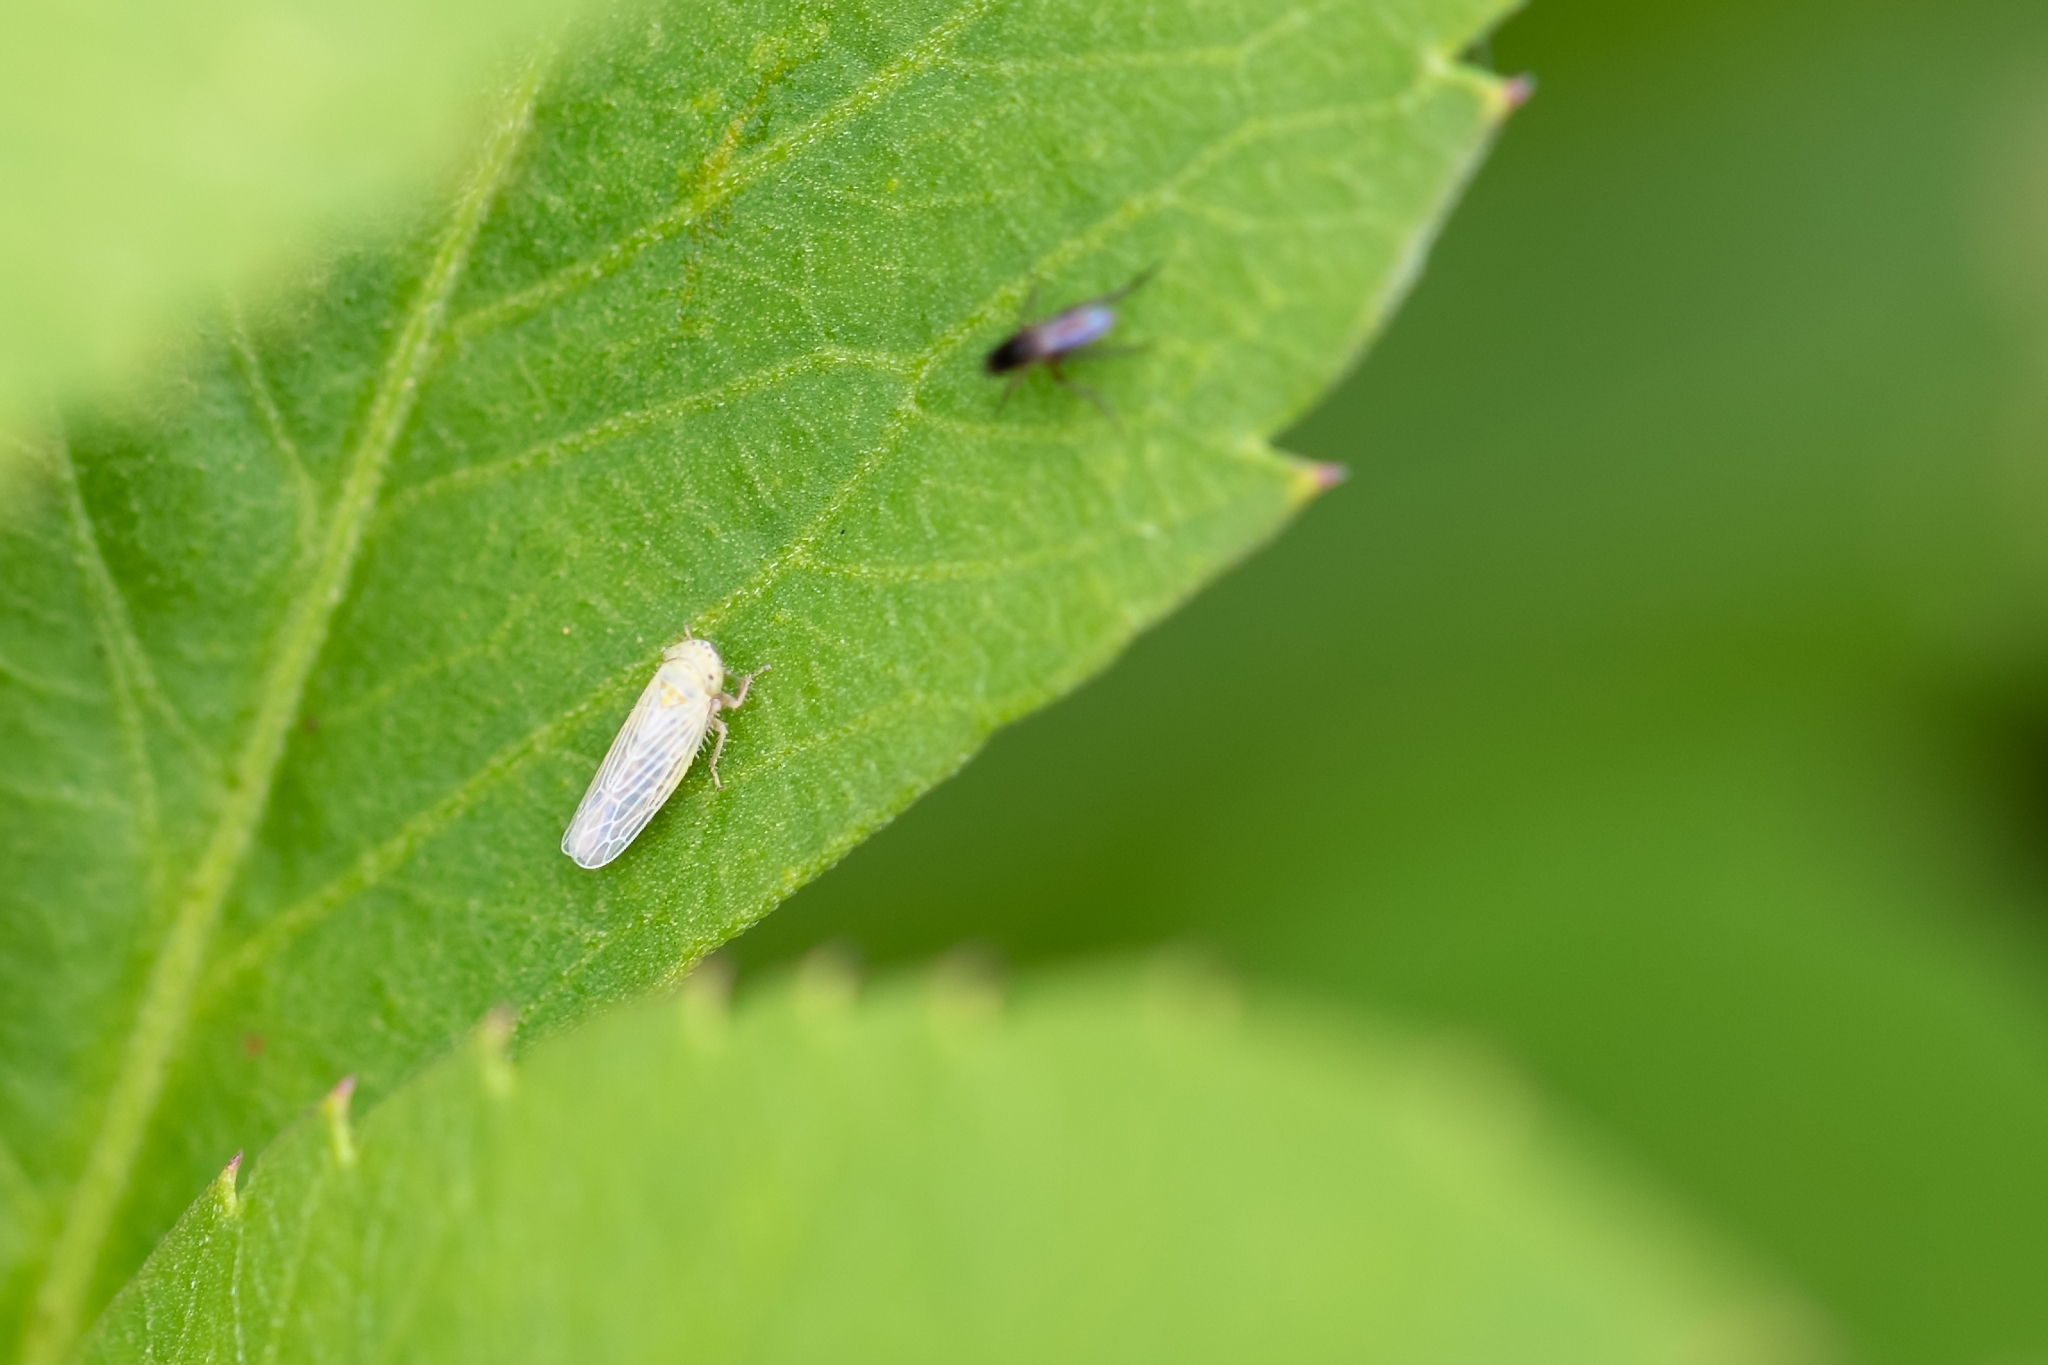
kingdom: Animalia
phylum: Arthropoda
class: Insecta
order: Hemiptera
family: Cicadellidae
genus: Graminella
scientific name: Graminella nigrifrons
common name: Blackfaced leafhopper
